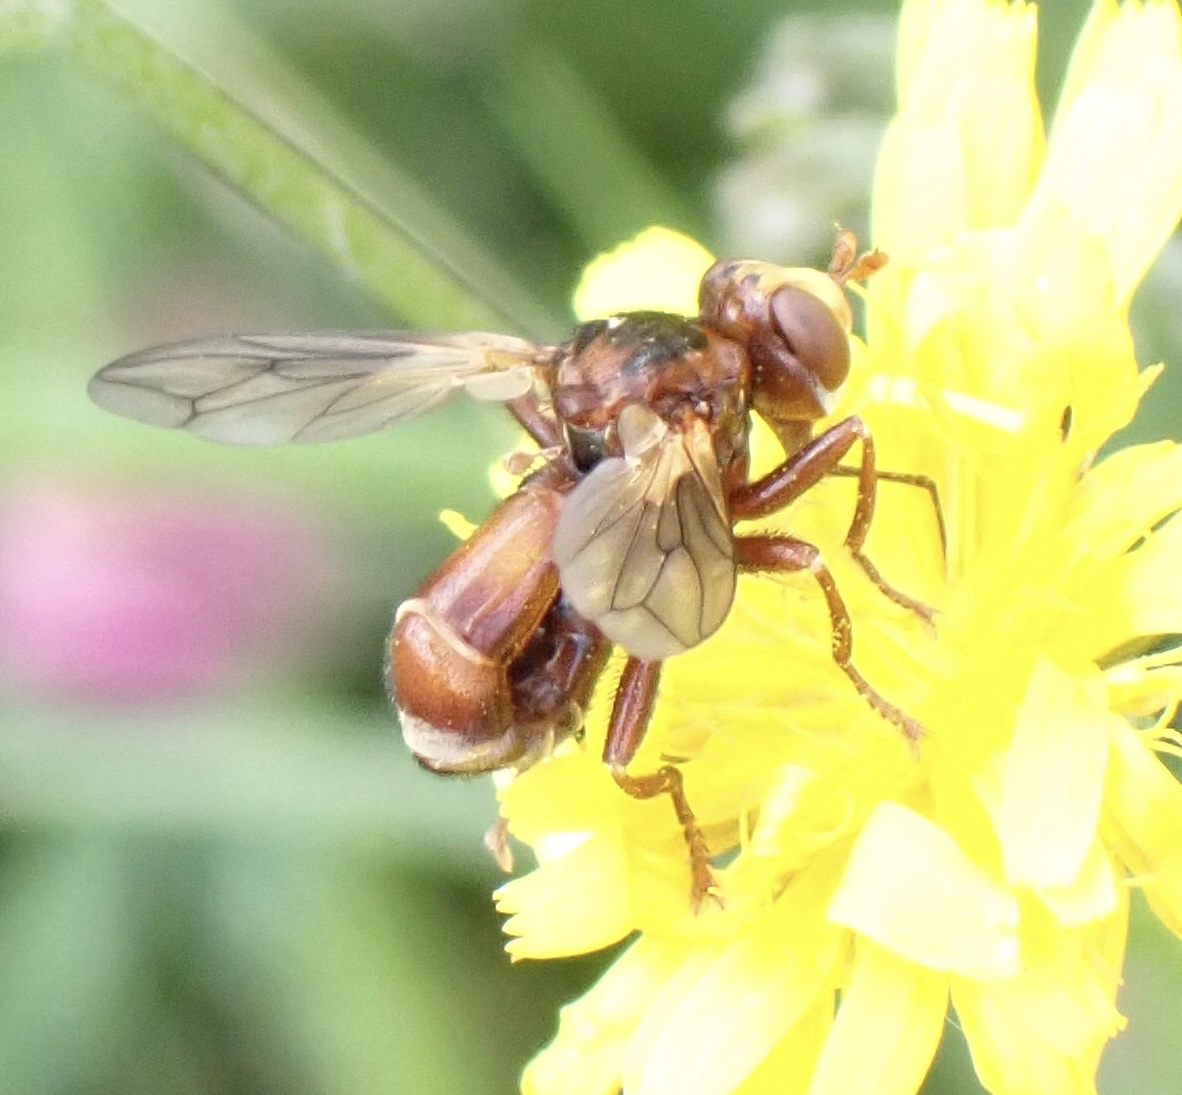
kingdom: Animalia
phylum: Arthropoda
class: Insecta
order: Diptera
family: Conopidae
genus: Sicus
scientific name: Sicus ferrugineus
